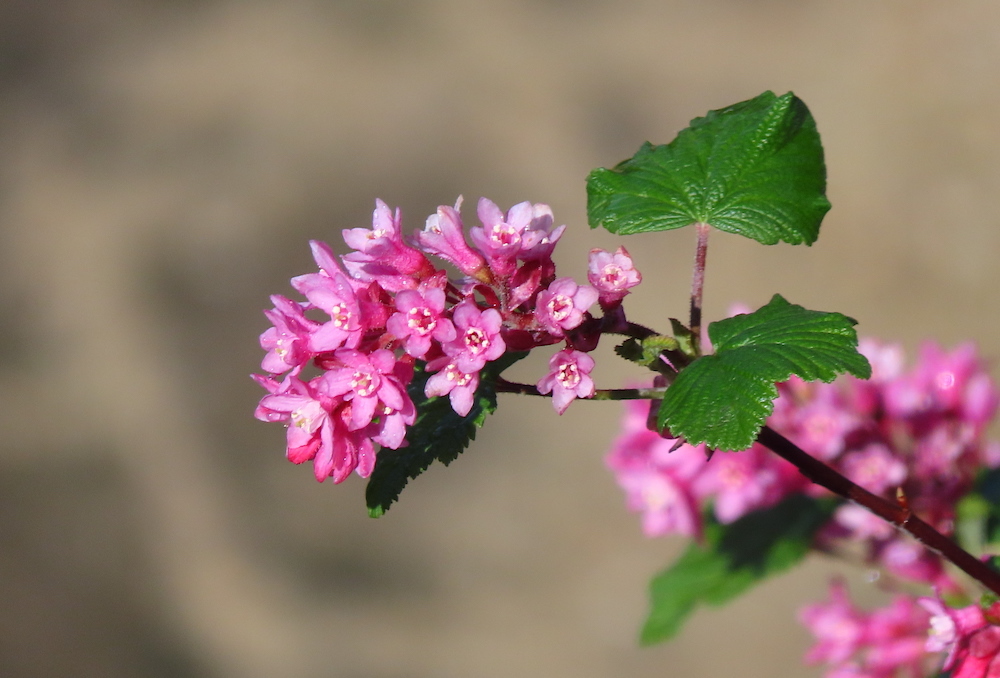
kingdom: Plantae
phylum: Tracheophyta
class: Magnoliopsida
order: Saxifragales
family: Grossulariaceae
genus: Ribes
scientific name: Ribes sanguineum
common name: Flowering currant
